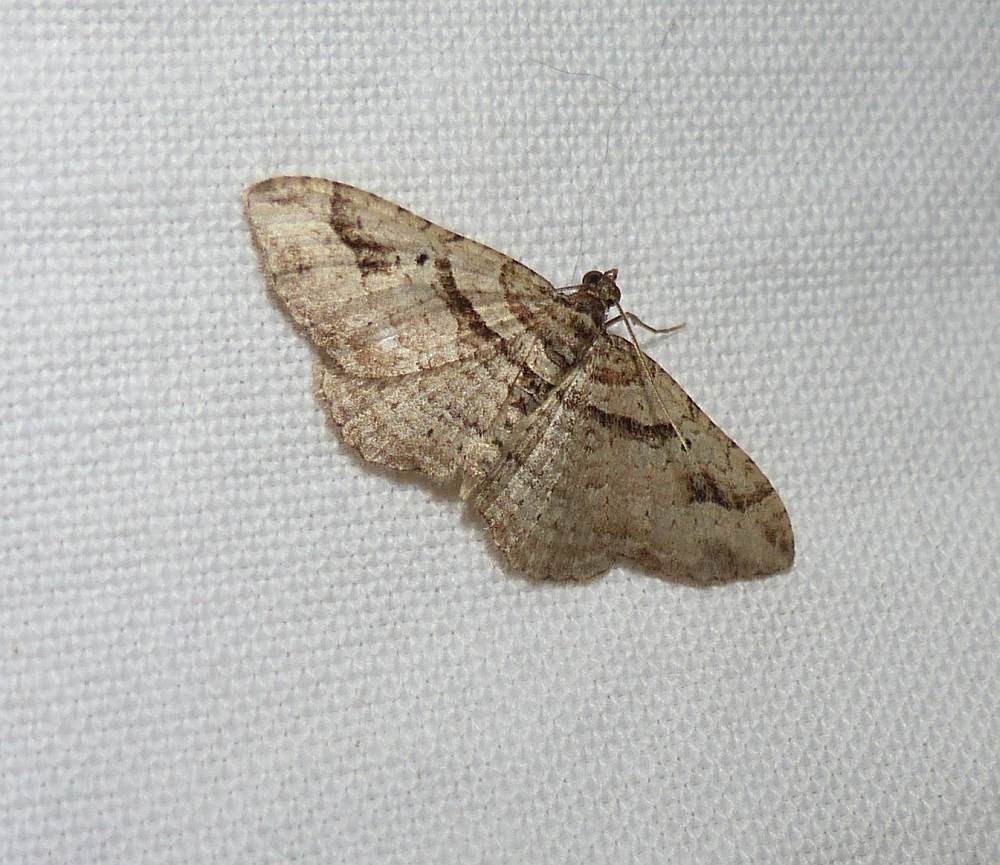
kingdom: Animalia
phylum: Arthropoda
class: Insecta
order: Lepidoptera
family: Geometridae
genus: Costaconvexa
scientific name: Costaconvexa centrostrigaria
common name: Bent-line carpet
